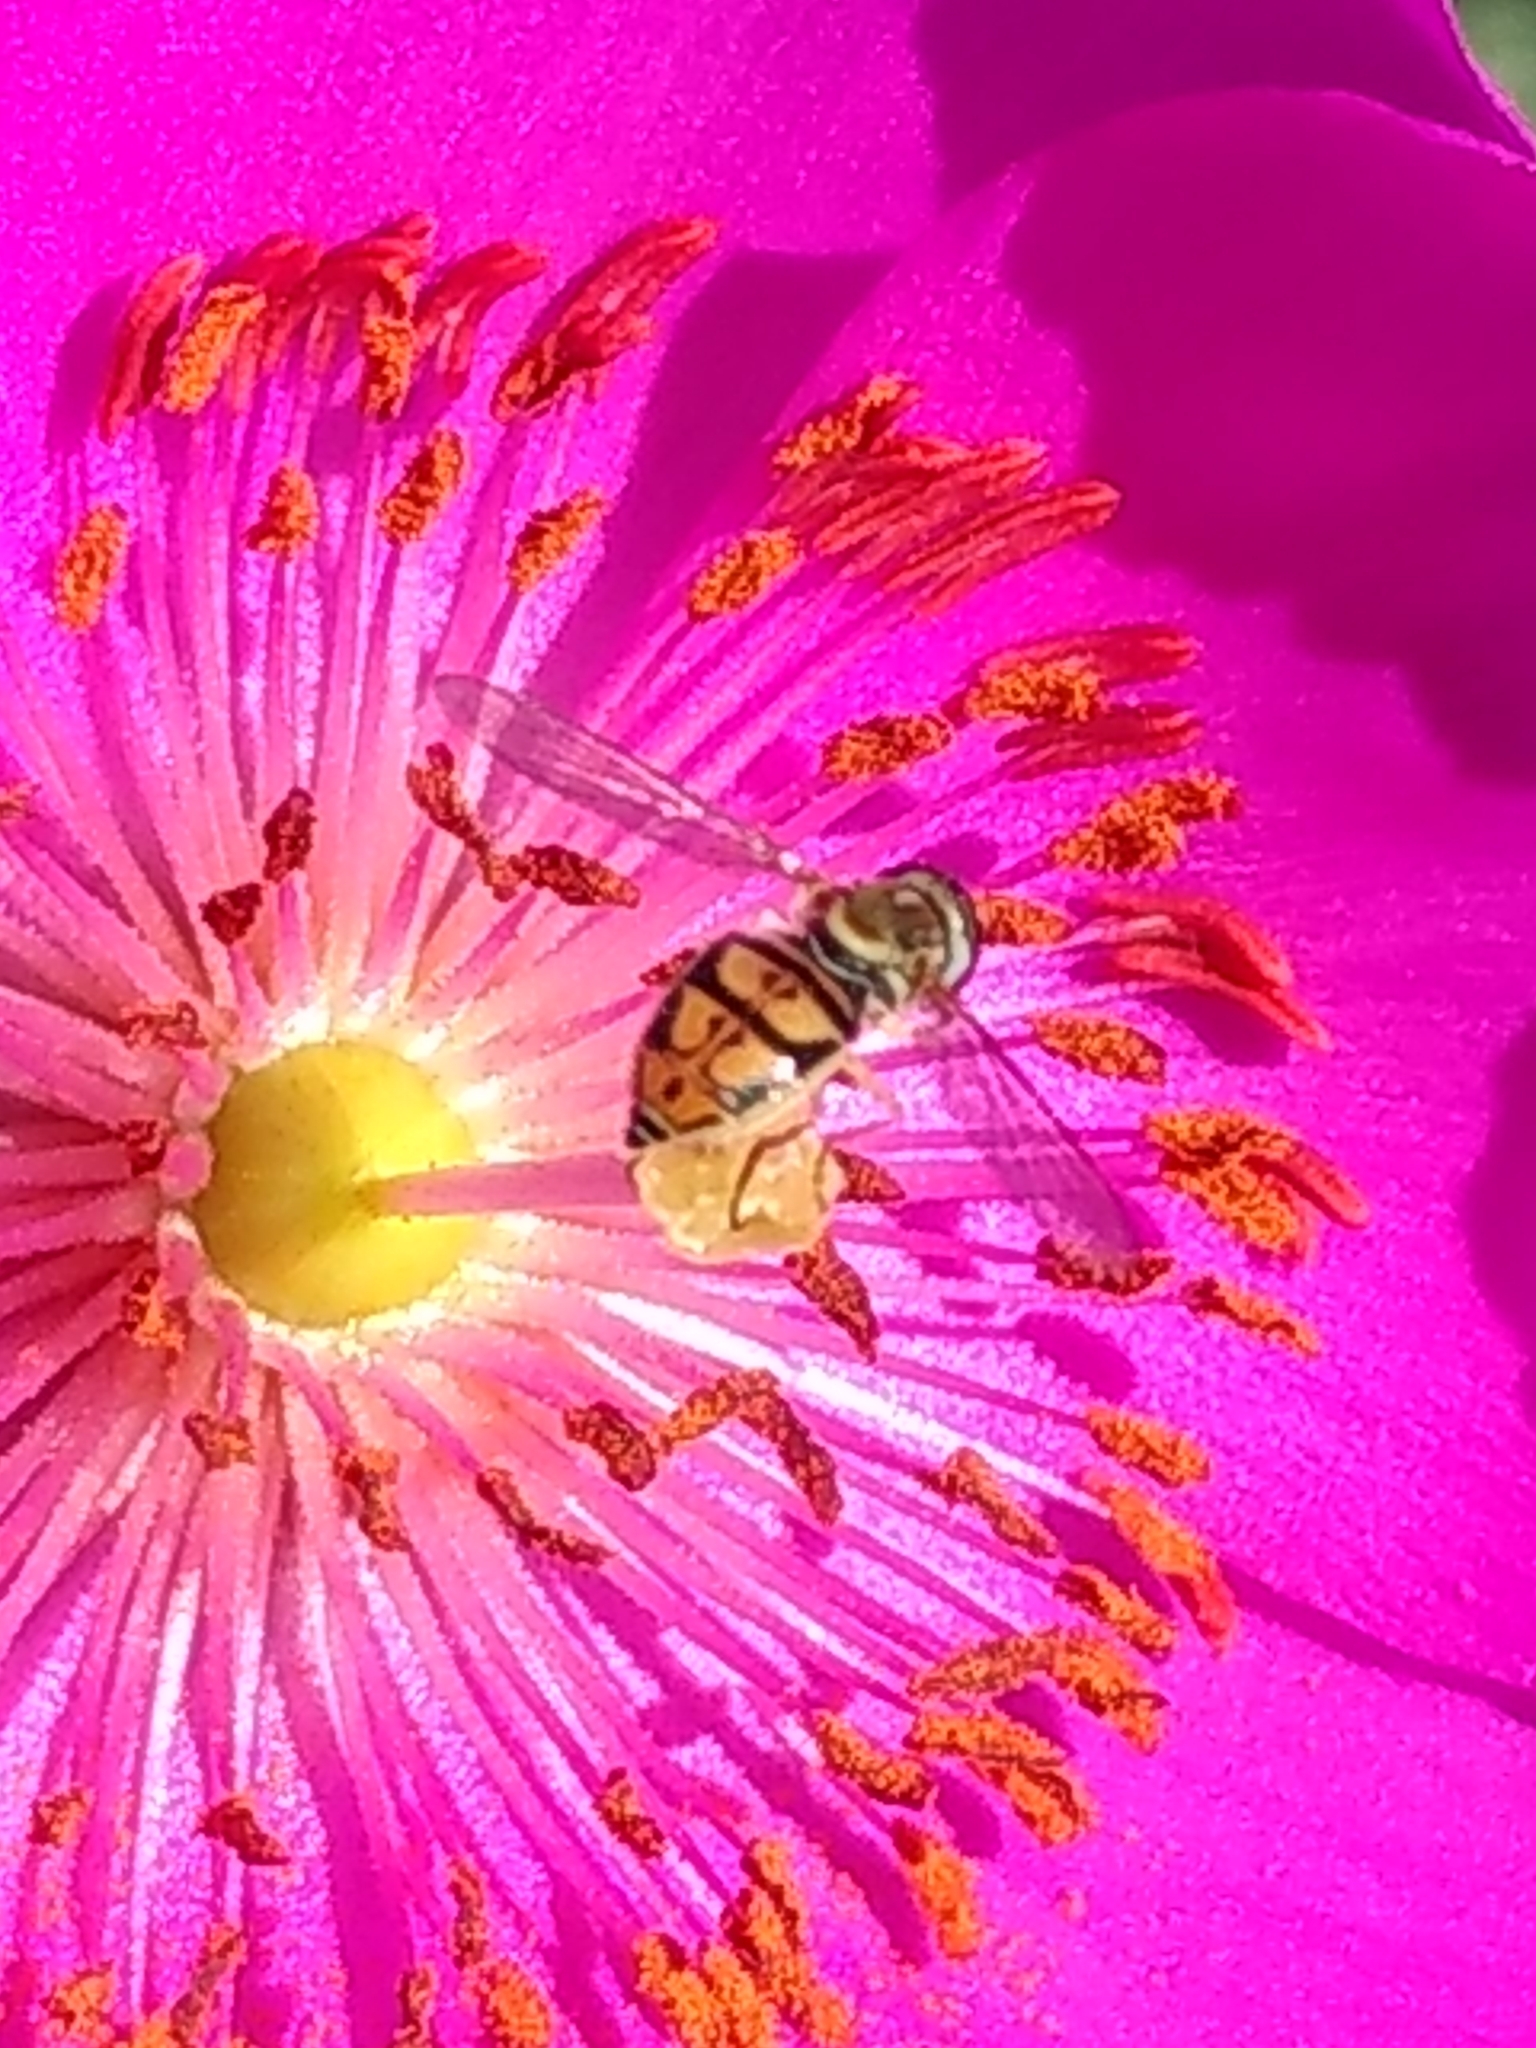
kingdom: Animalia
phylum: Arthropoda
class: Insecta
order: Diptera
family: Syrphidae
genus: Toxomerus
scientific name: Toxomerus marginatus
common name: Syrphid fly
